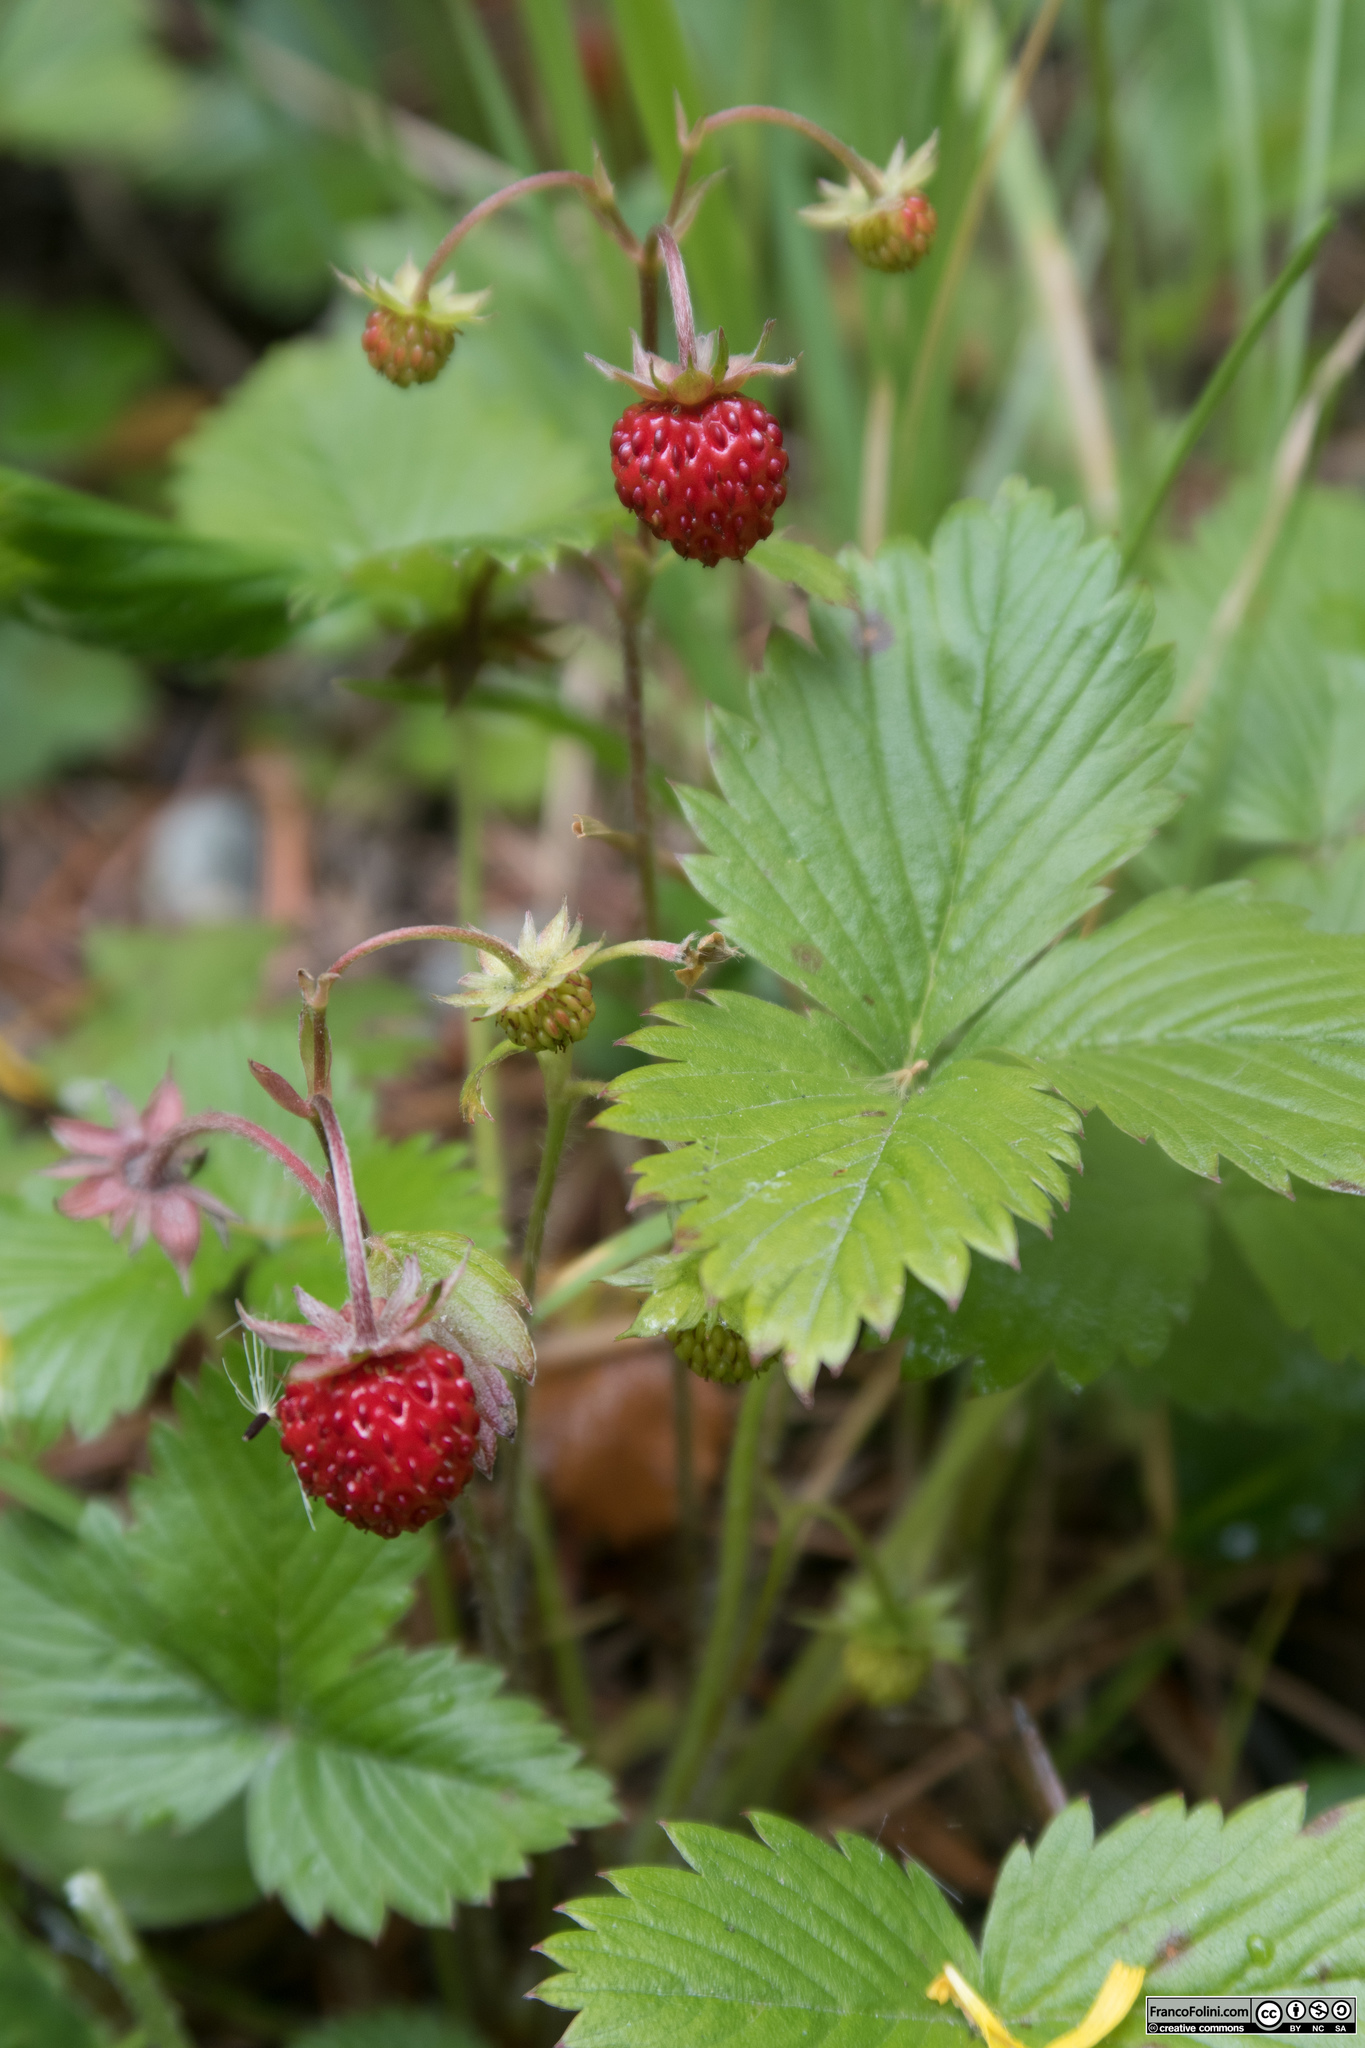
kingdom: Plantae
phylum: Tracheophyta
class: Magnoliopsida
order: Rosales
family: Rosaceae
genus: Fragaria
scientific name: Fragaria vesca
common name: Wild strawberry
